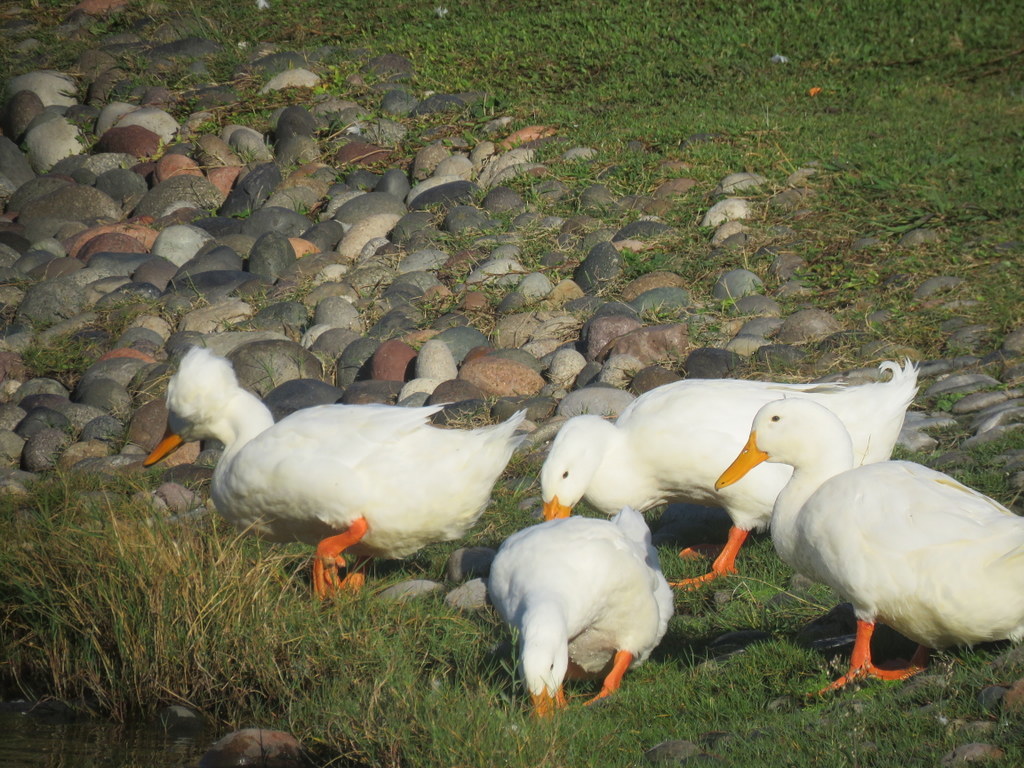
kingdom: Animalia
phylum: Chordata
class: Aves
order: Anseriformes
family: Anatidae
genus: Anas
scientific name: Anas platyrhynchos
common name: Mallard
